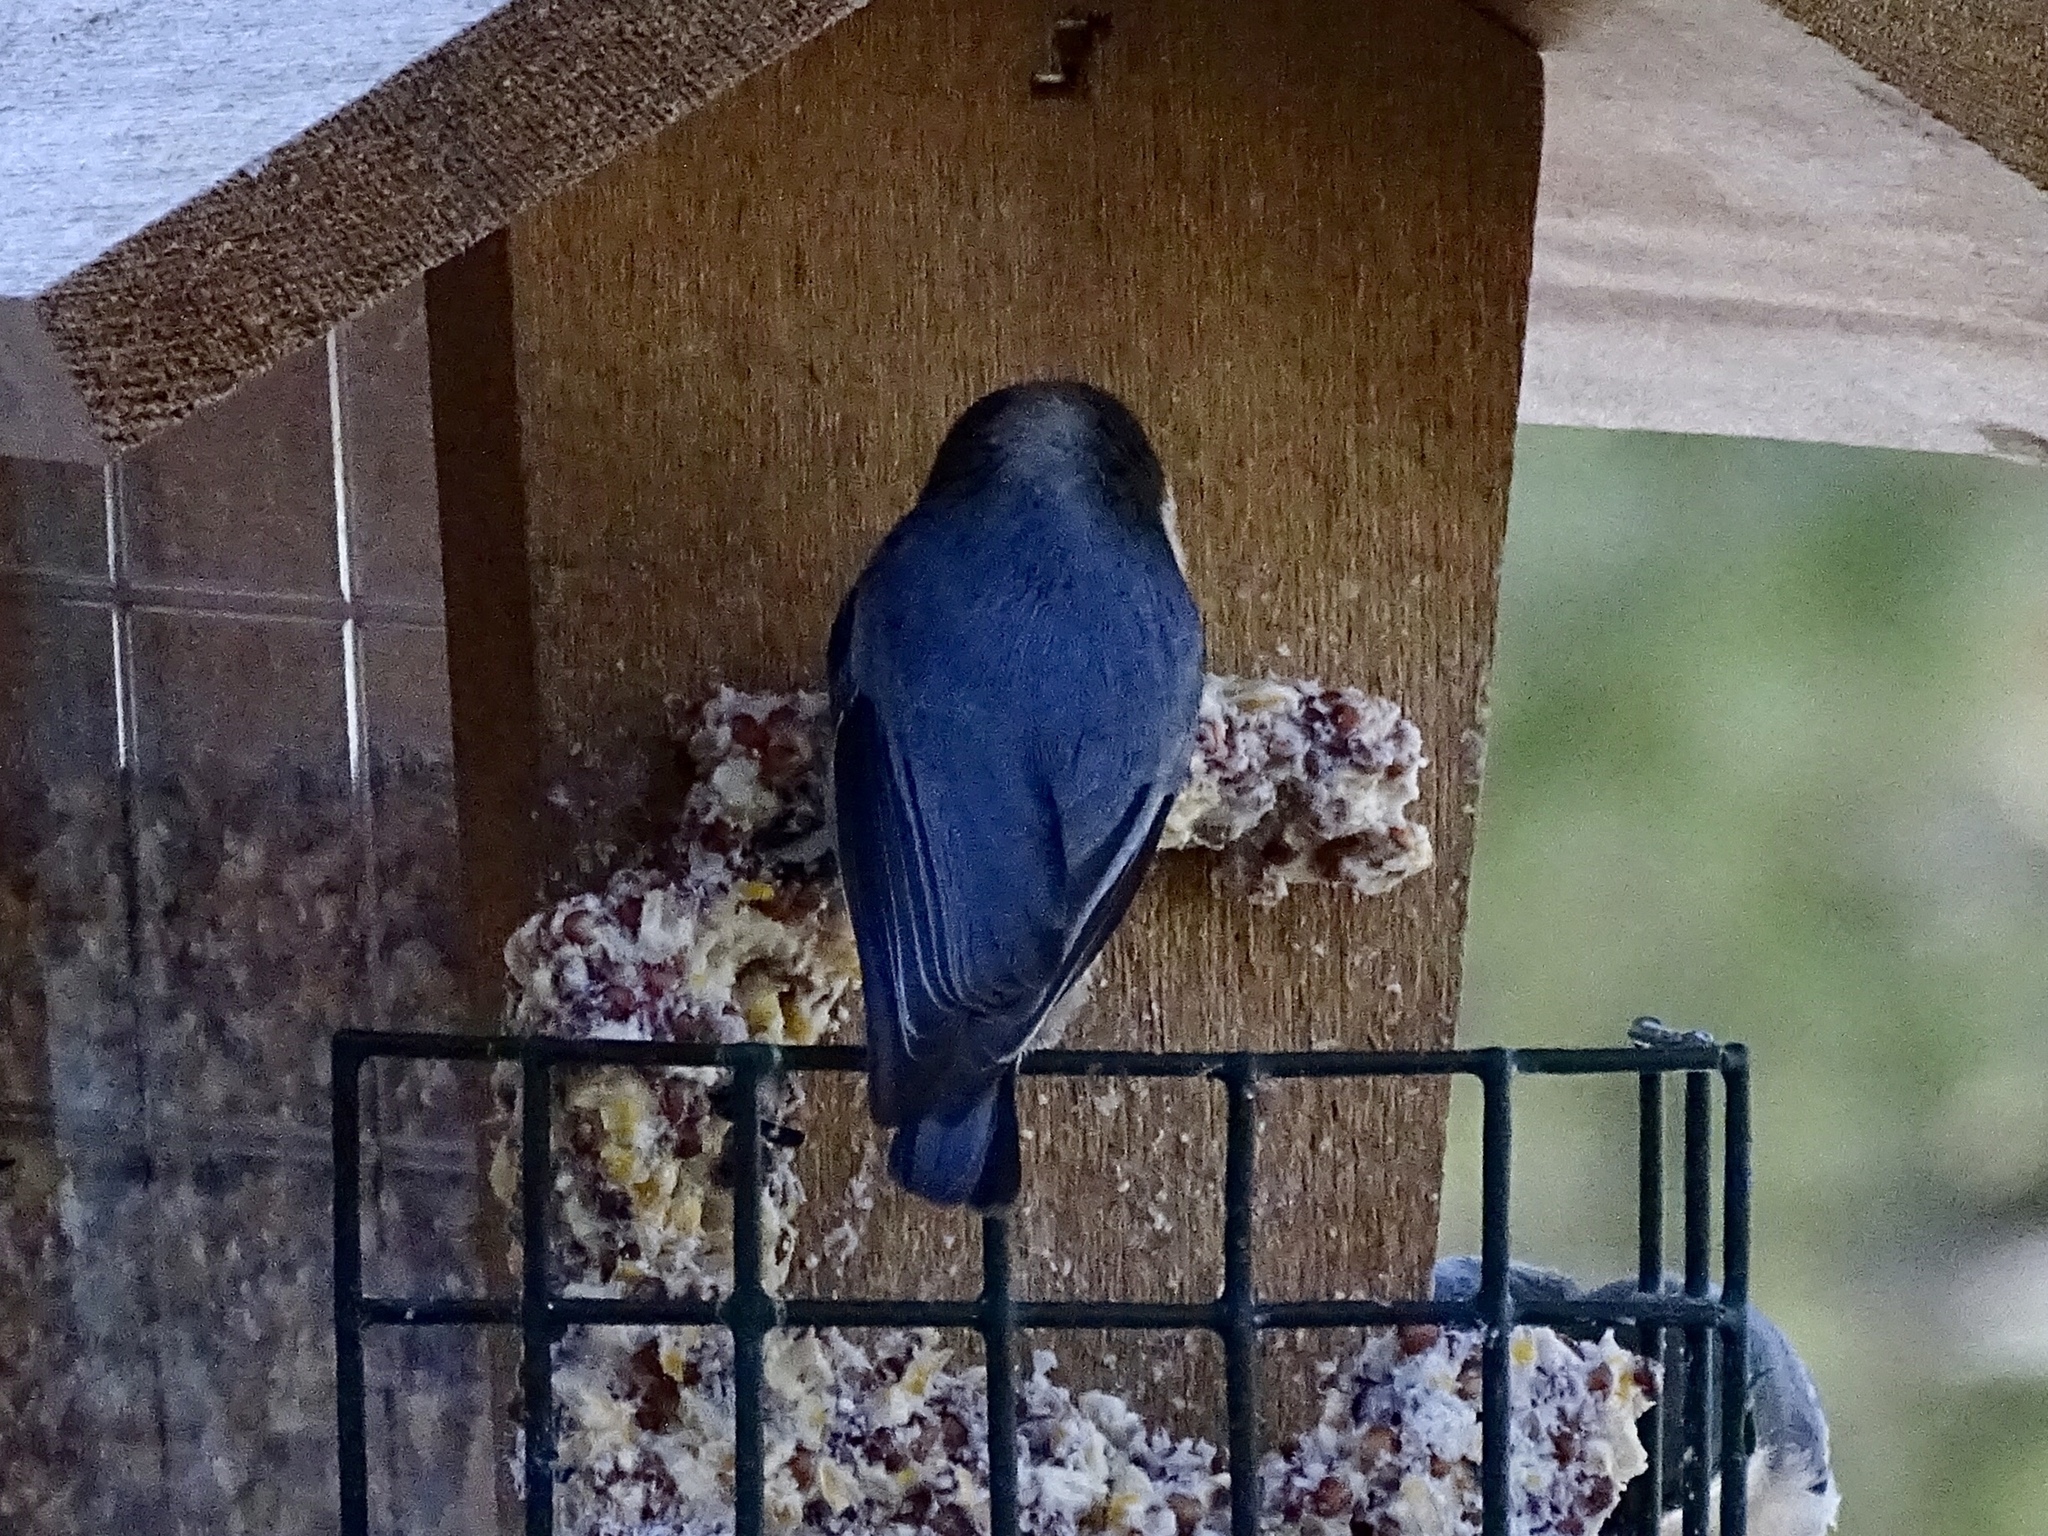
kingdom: Animalia
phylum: Chordata
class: Aves
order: Passeriformes
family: Sittidae
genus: Sitta
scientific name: Sitta pygmaea
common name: Pygmy nuthatch
